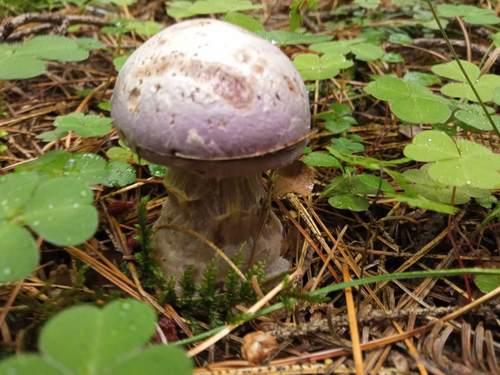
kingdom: Fungi
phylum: Basidiomycota
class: Agaricomycetes
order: Agaricales
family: Cortinariaceae
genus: Cortinarius
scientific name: Cortinarius alboviolaceus
